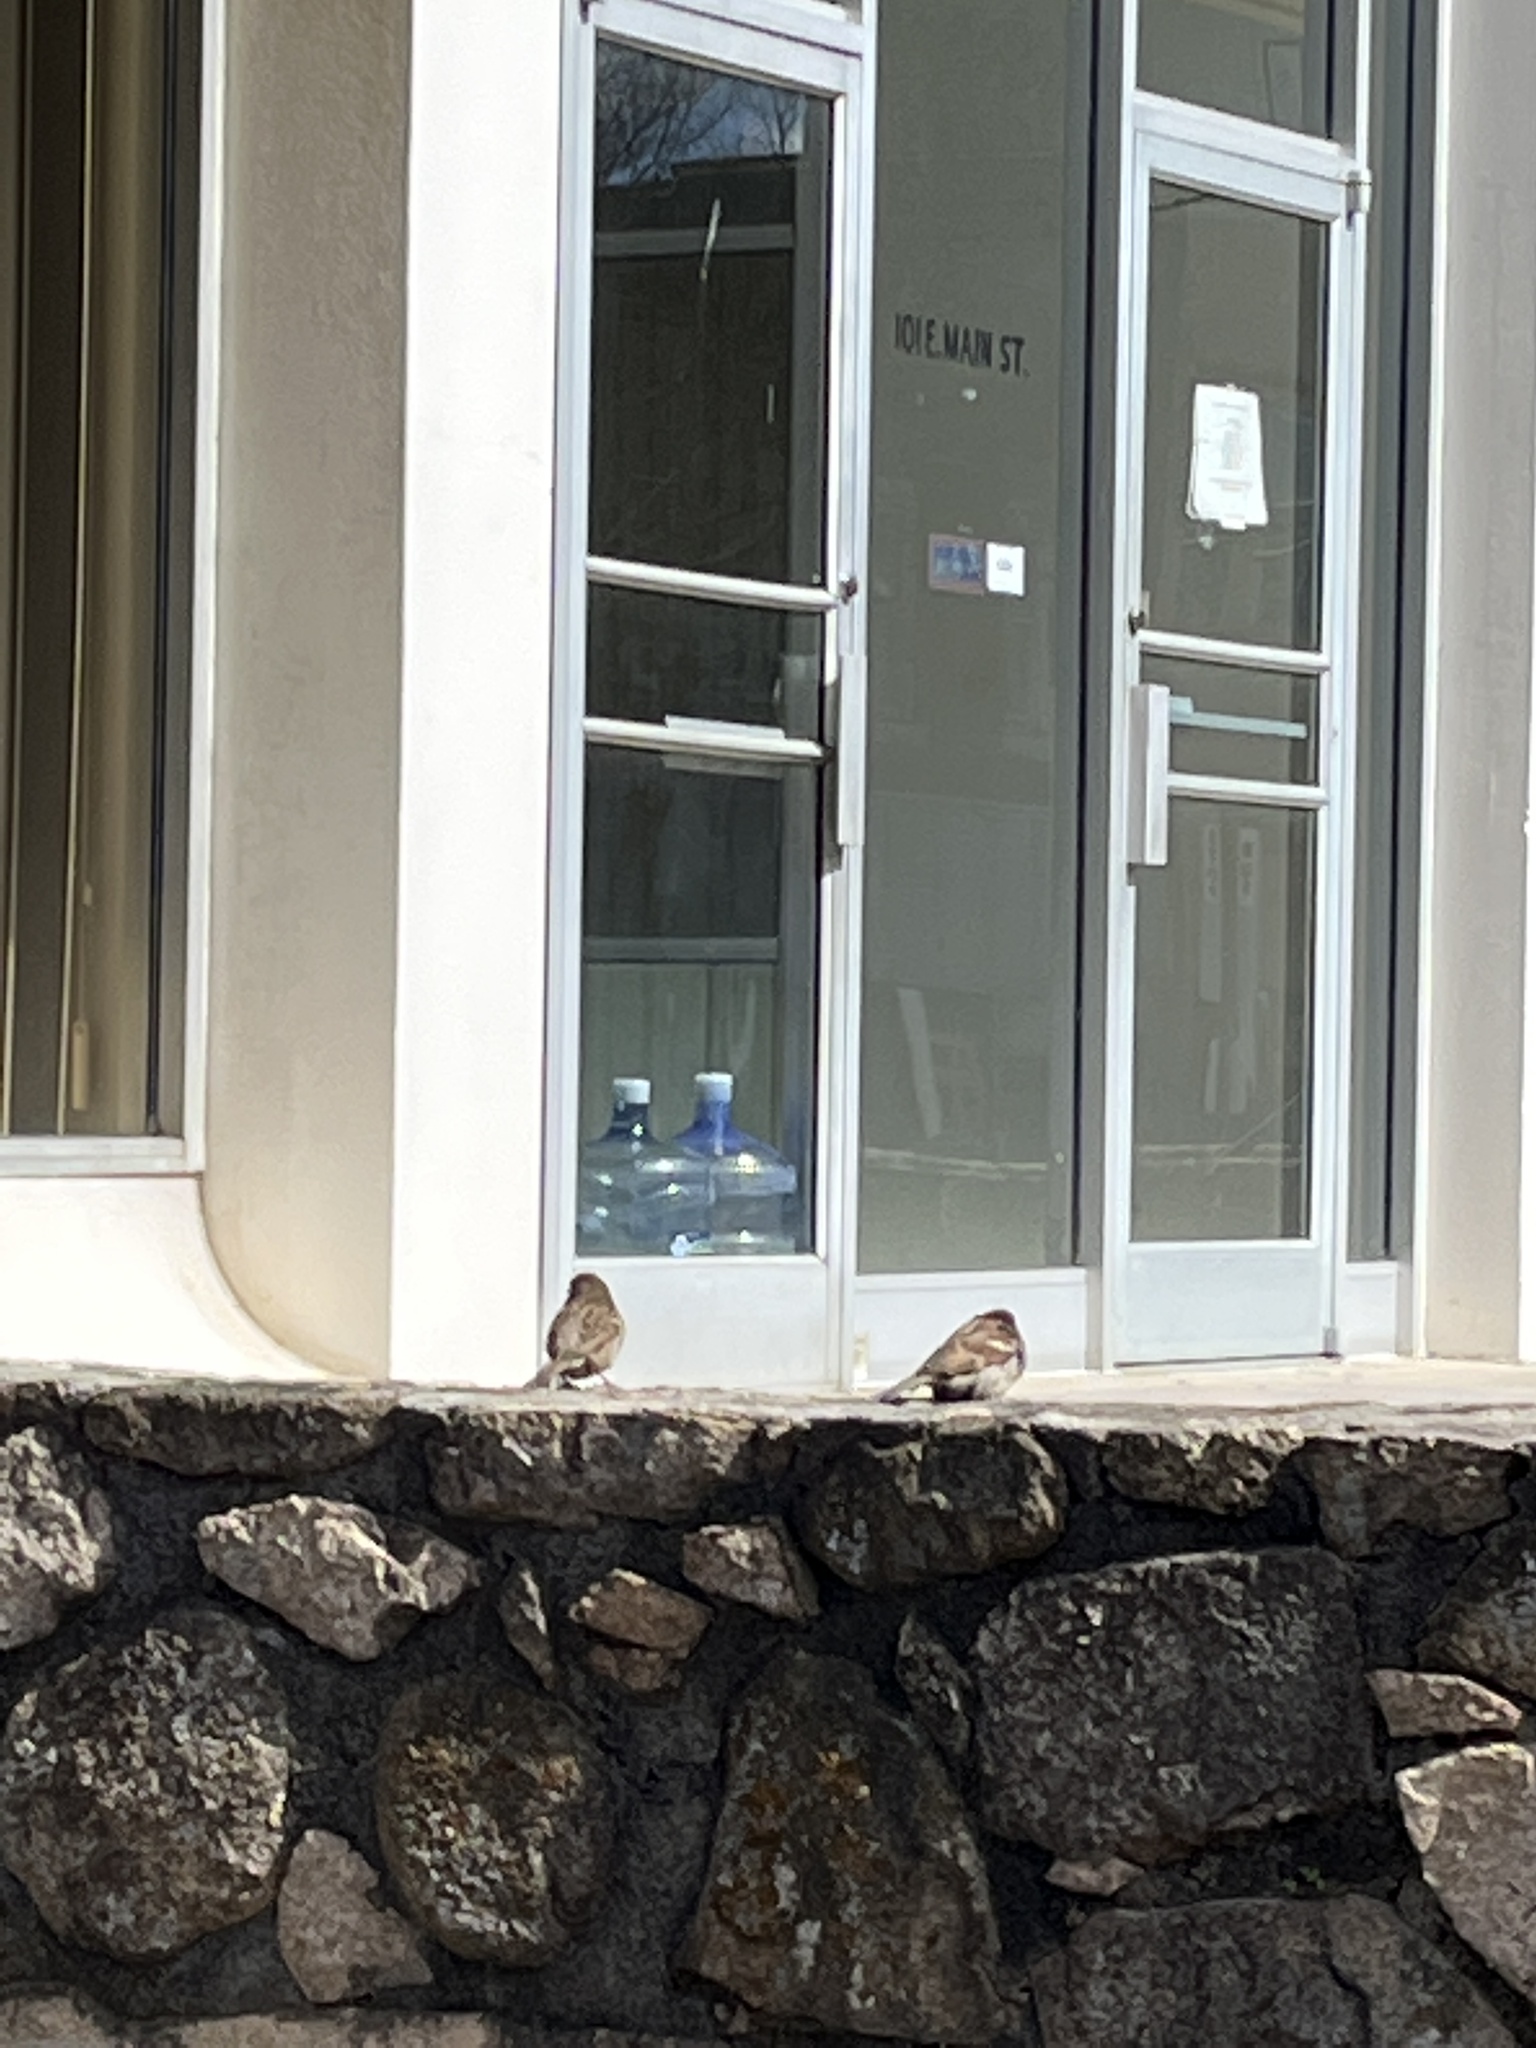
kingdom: Animalia
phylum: Chordata
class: Aves
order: Passeriformes
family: Passeridae
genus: Passer
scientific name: Passer domesticus
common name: House sparrow
